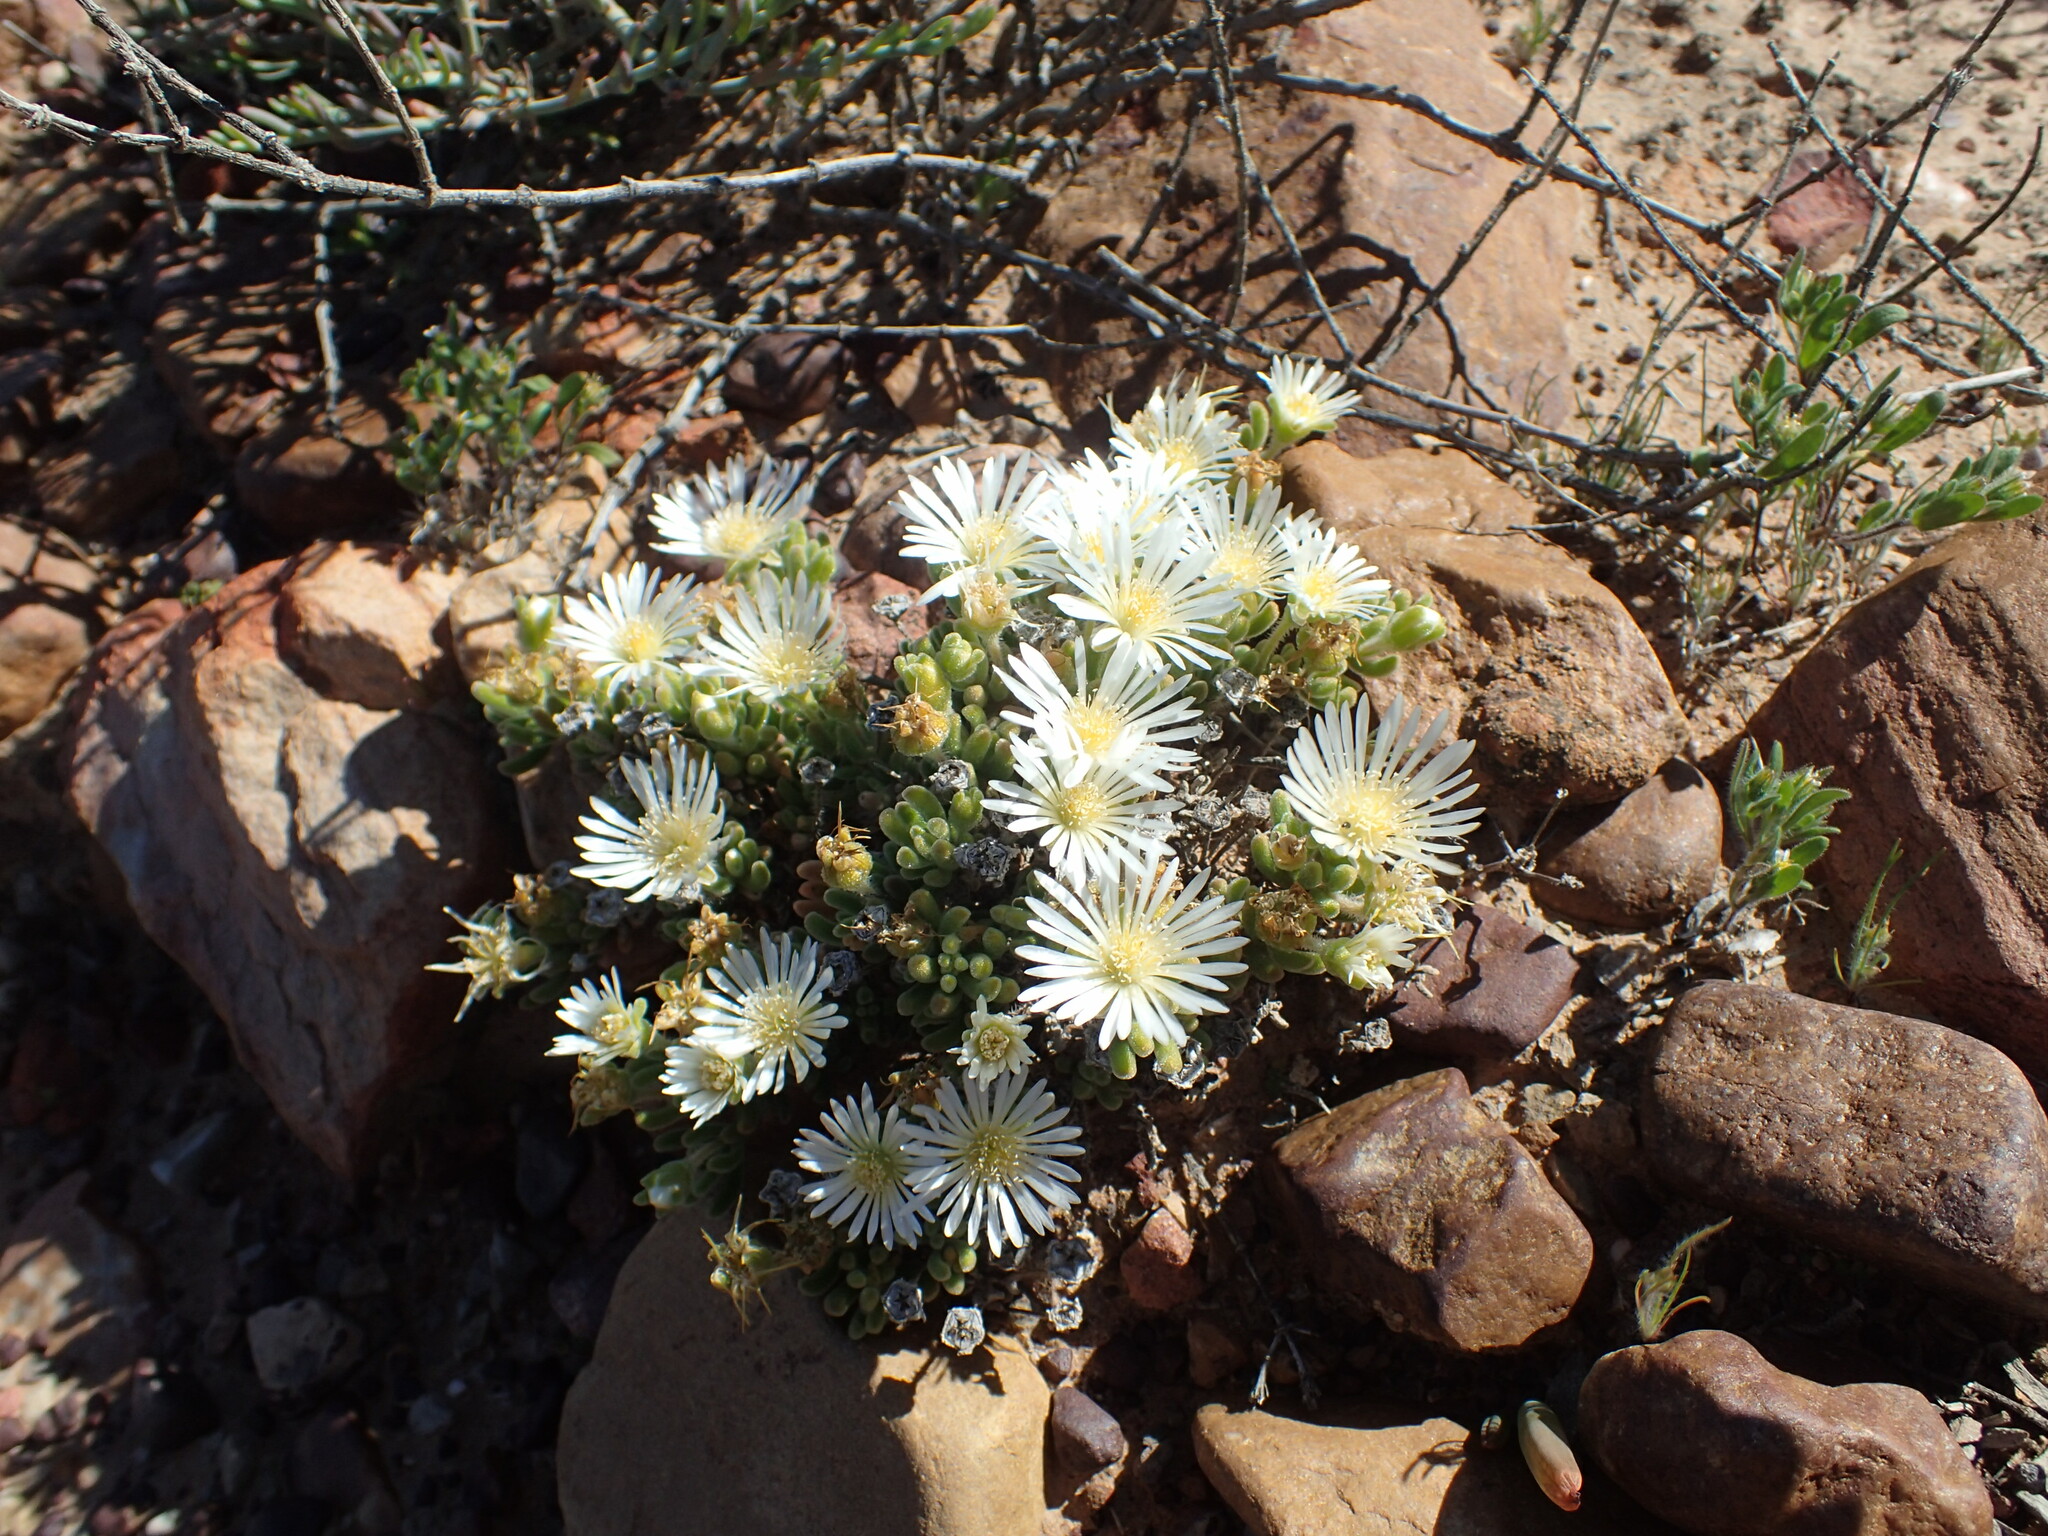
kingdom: Plantae
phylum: Tracheophyta
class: Magnoliopsida
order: Caryophyllales
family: Aizoaceae
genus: Drosanthemum
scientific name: Drosanthemum framesii
